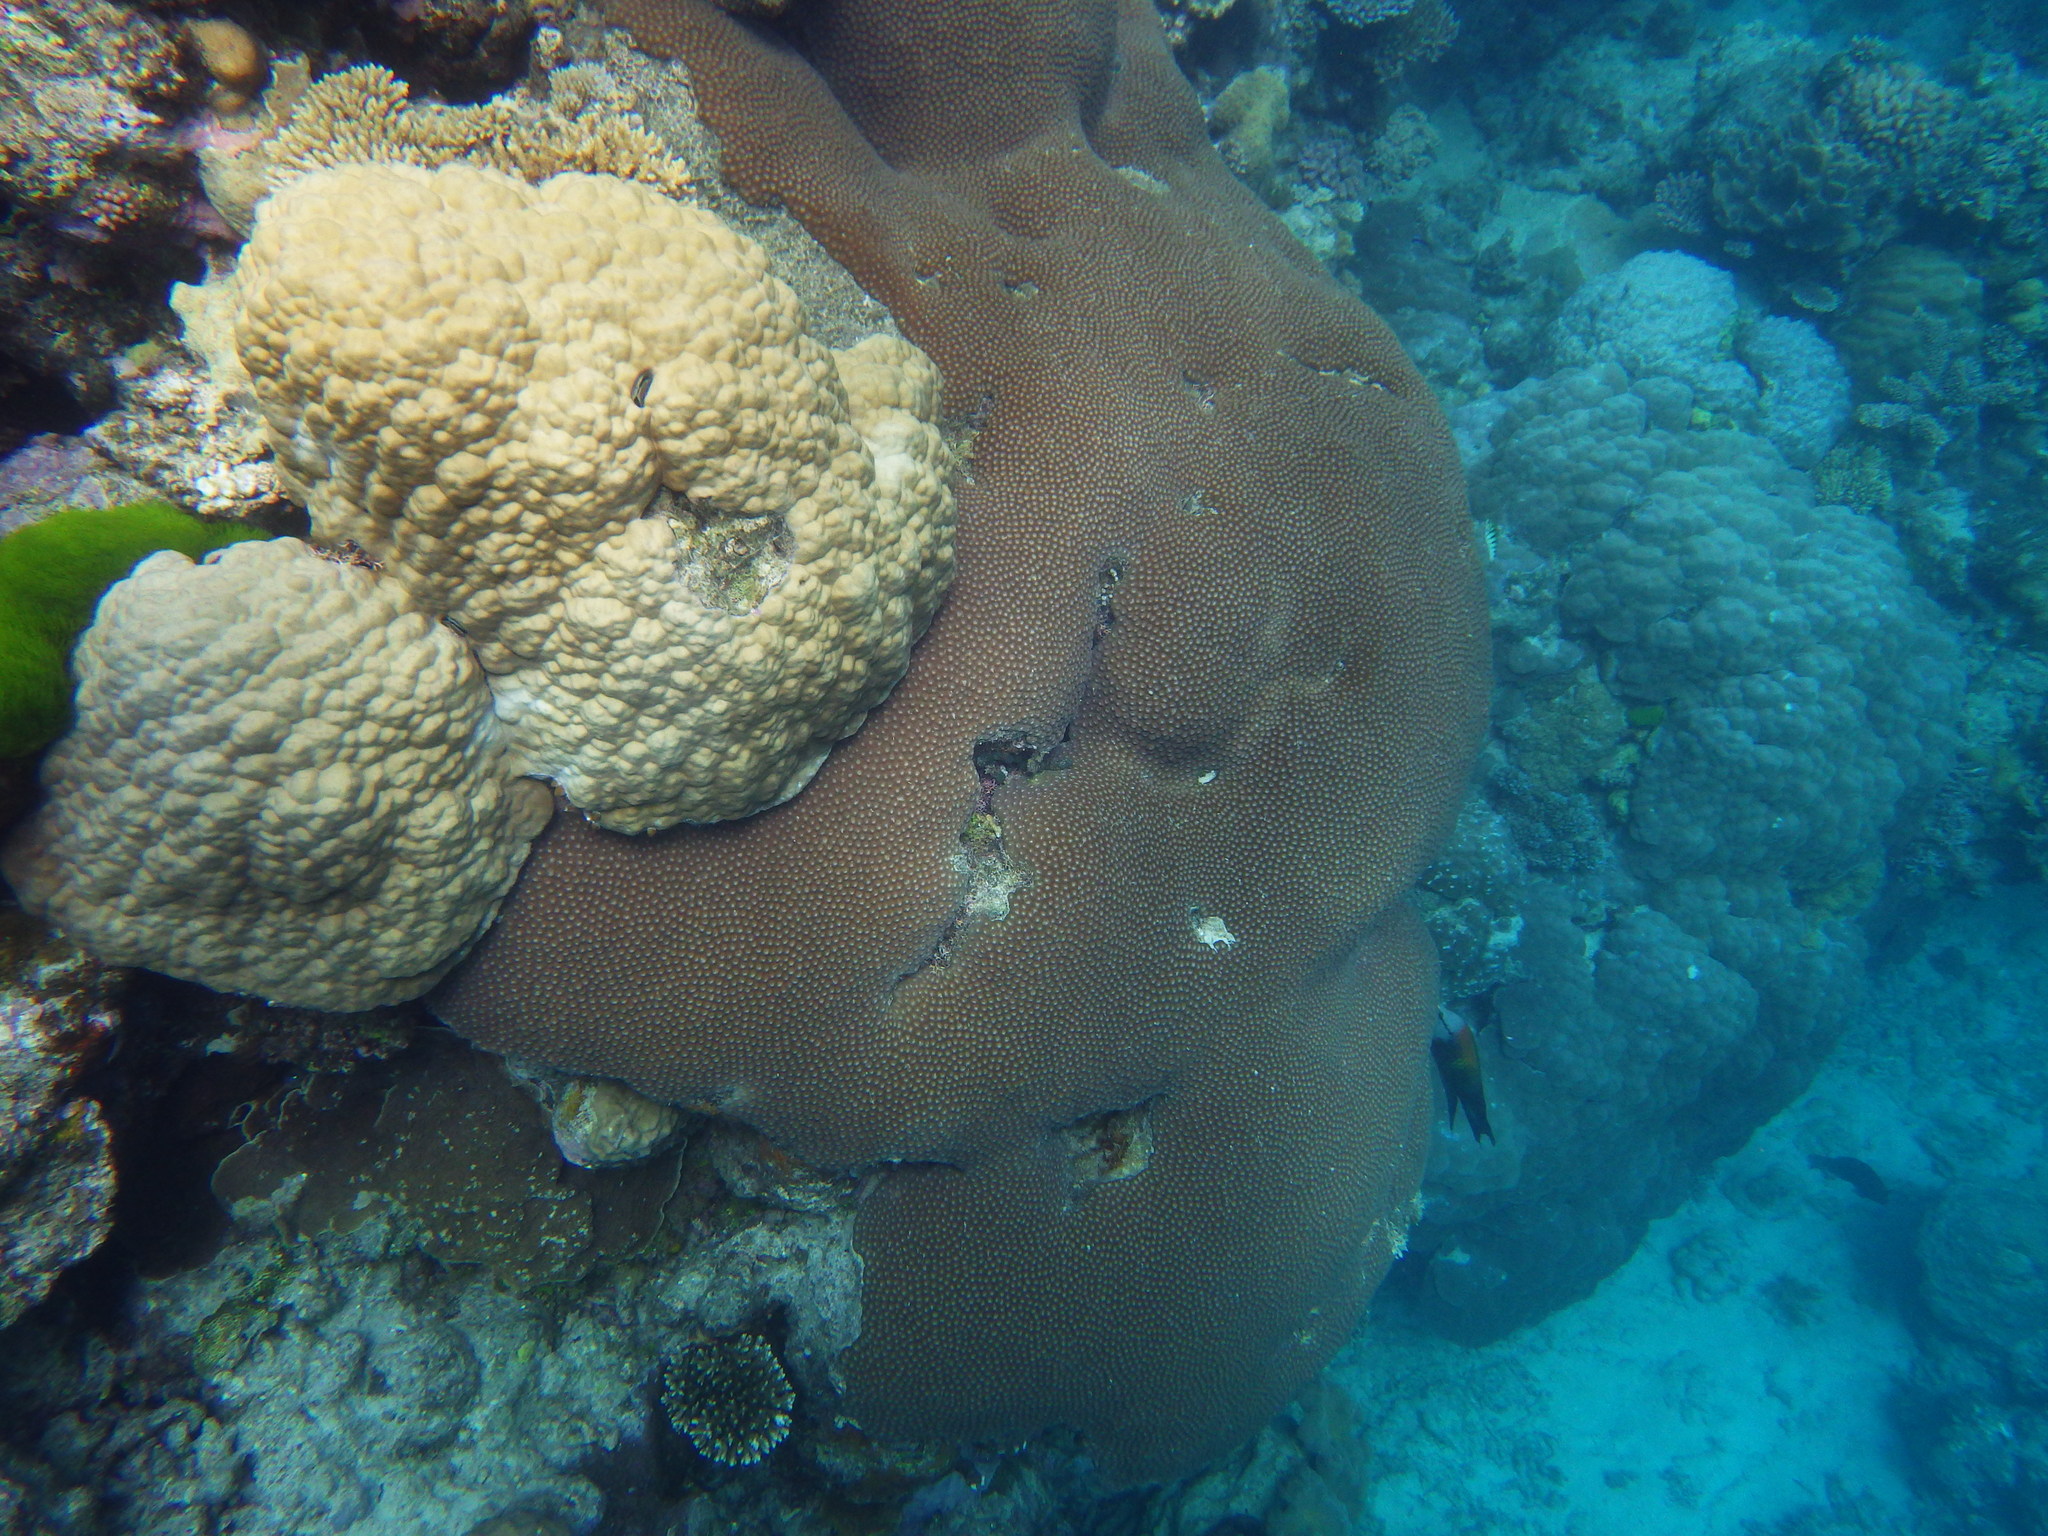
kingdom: Animalia
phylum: Cnidaria
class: Anthozoa
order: Scleractinia
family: Diploastraeidae
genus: Diploastrea
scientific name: Diploastrea heliopora
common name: Double-star coral
